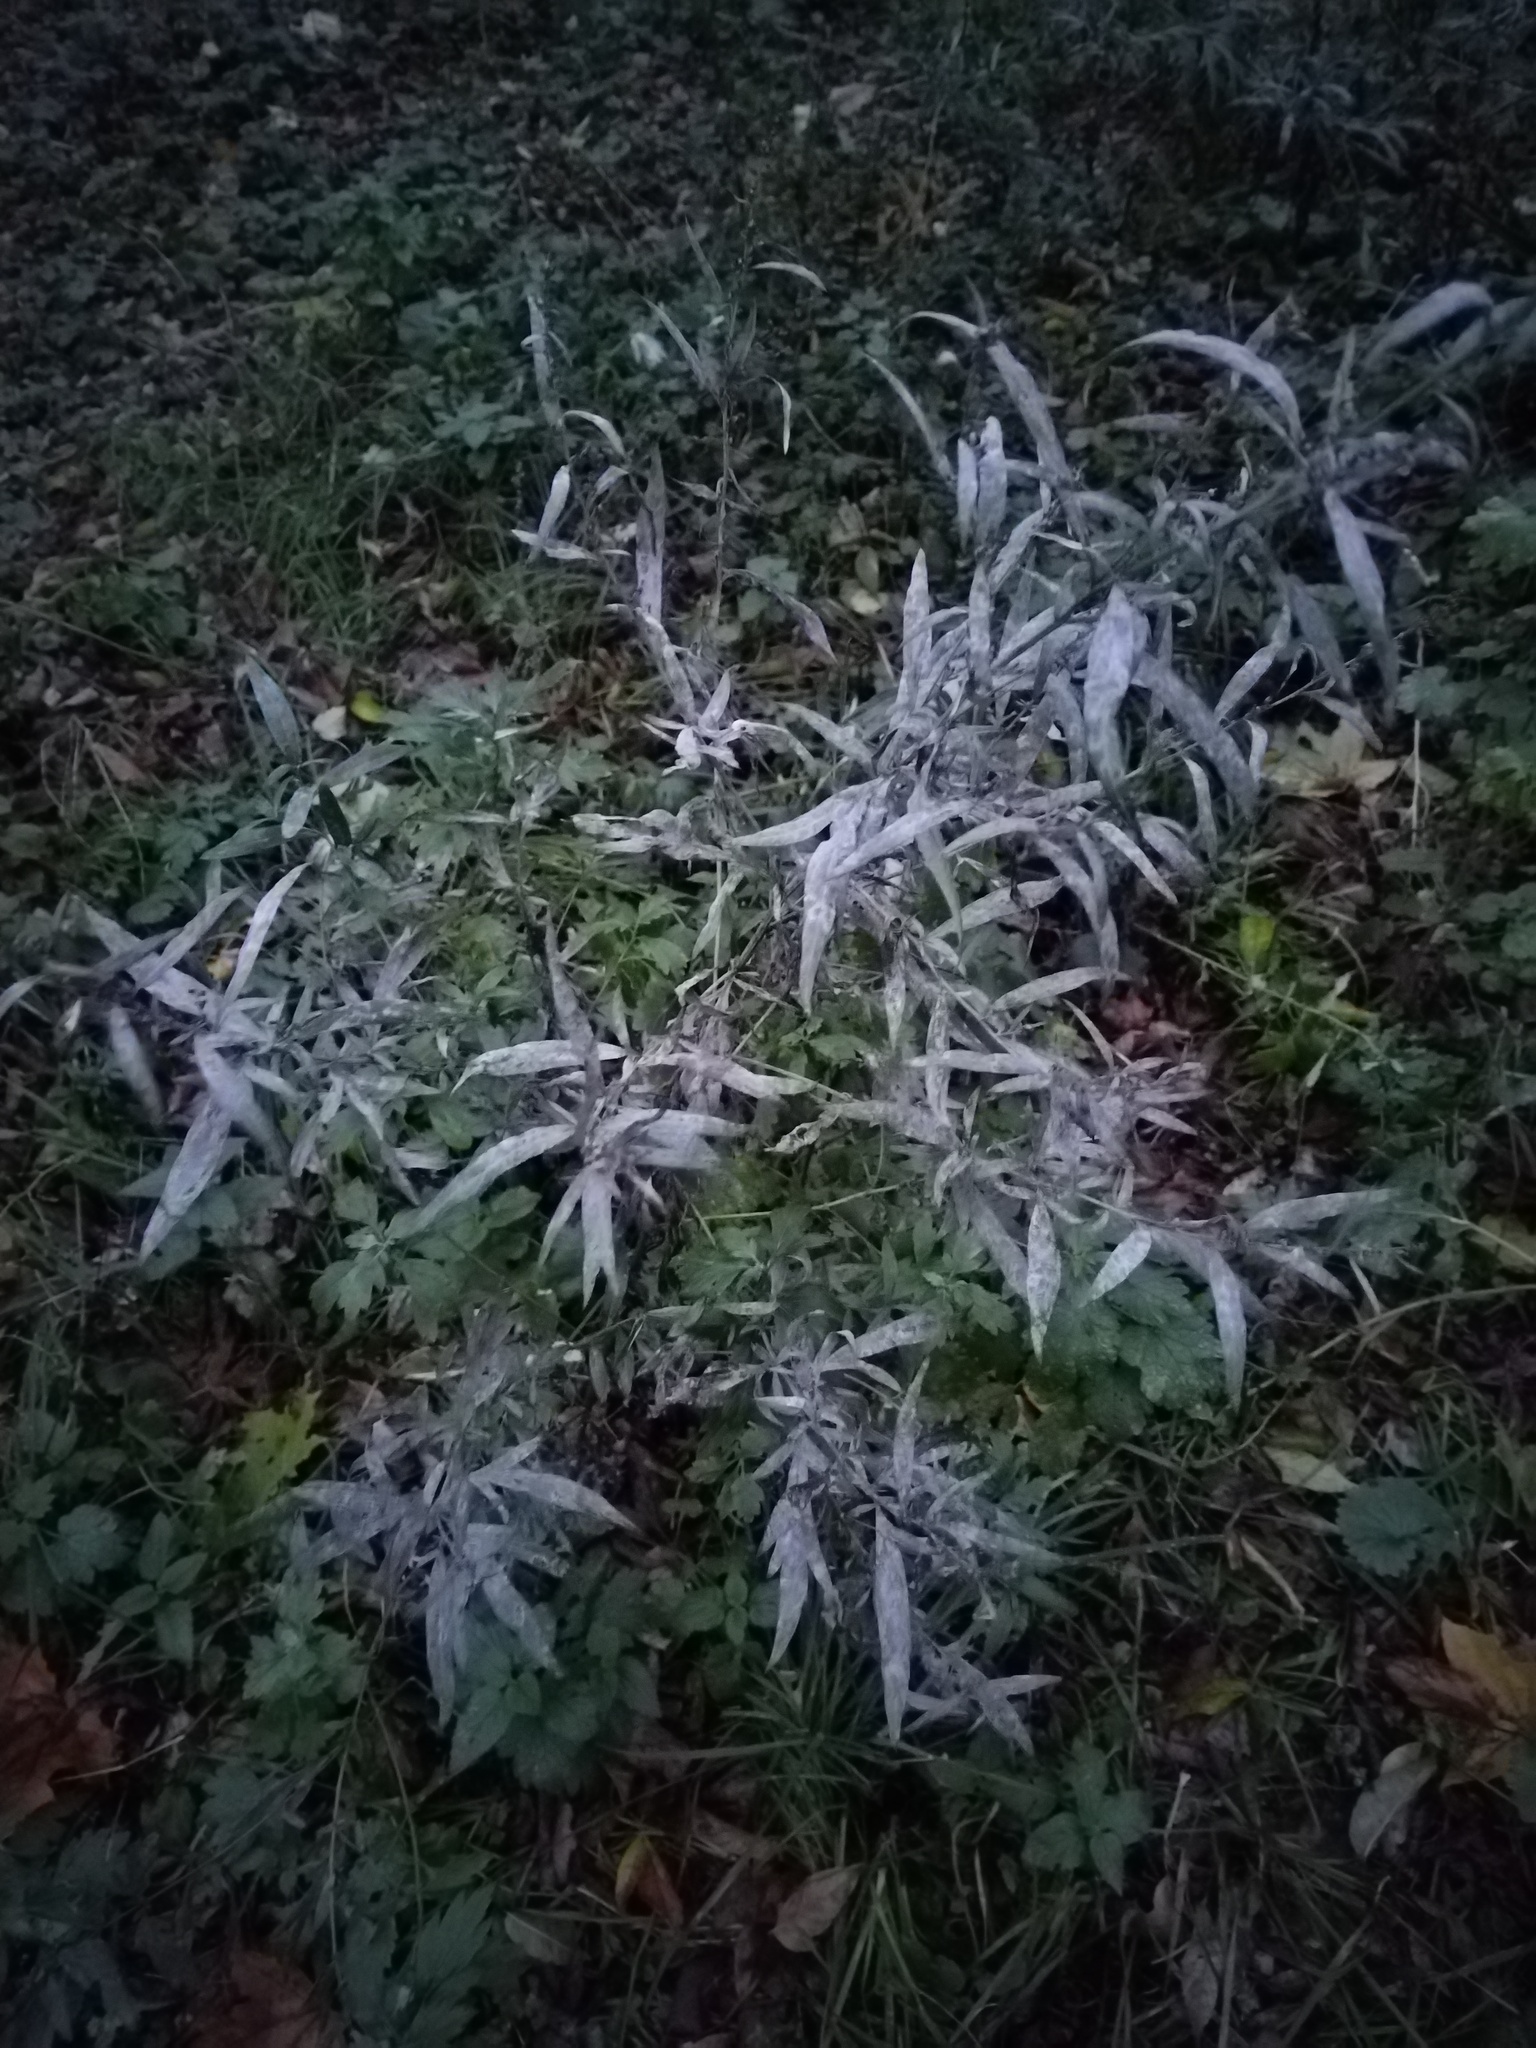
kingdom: Plantae
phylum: Tracheophyta
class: Magnoliopsida
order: Asterales
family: Asteraceae
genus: Artemisia
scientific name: Artemisia vulgaris
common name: Mugwort
